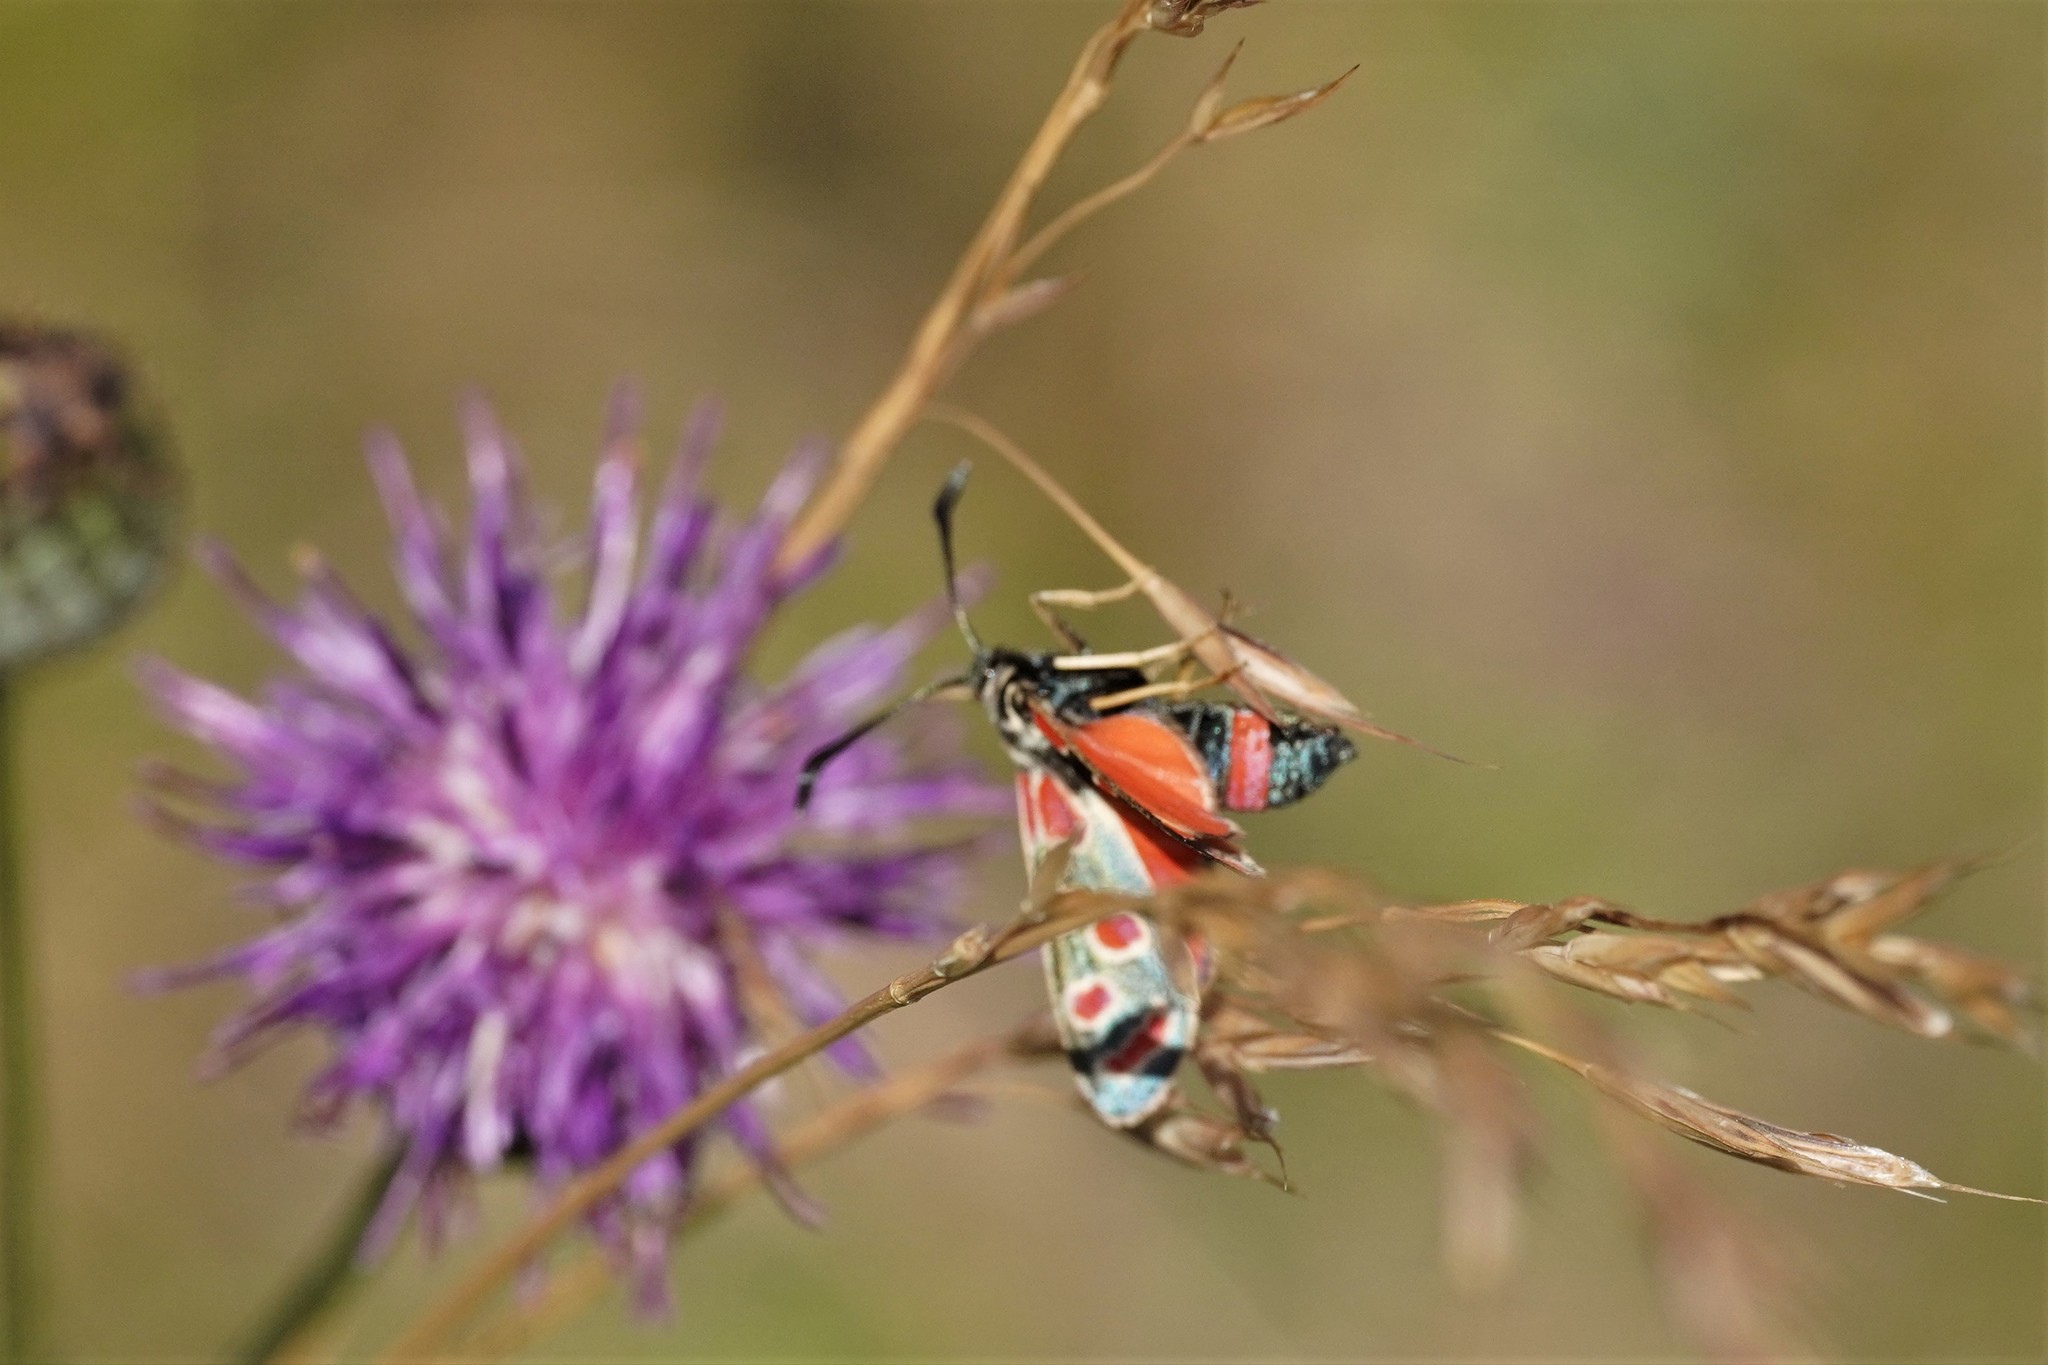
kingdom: Animalia
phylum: Arthropoda
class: Insecta
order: Lepidoptera
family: Zygaenidae
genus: Zygaena
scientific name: Zygaena carniolica
